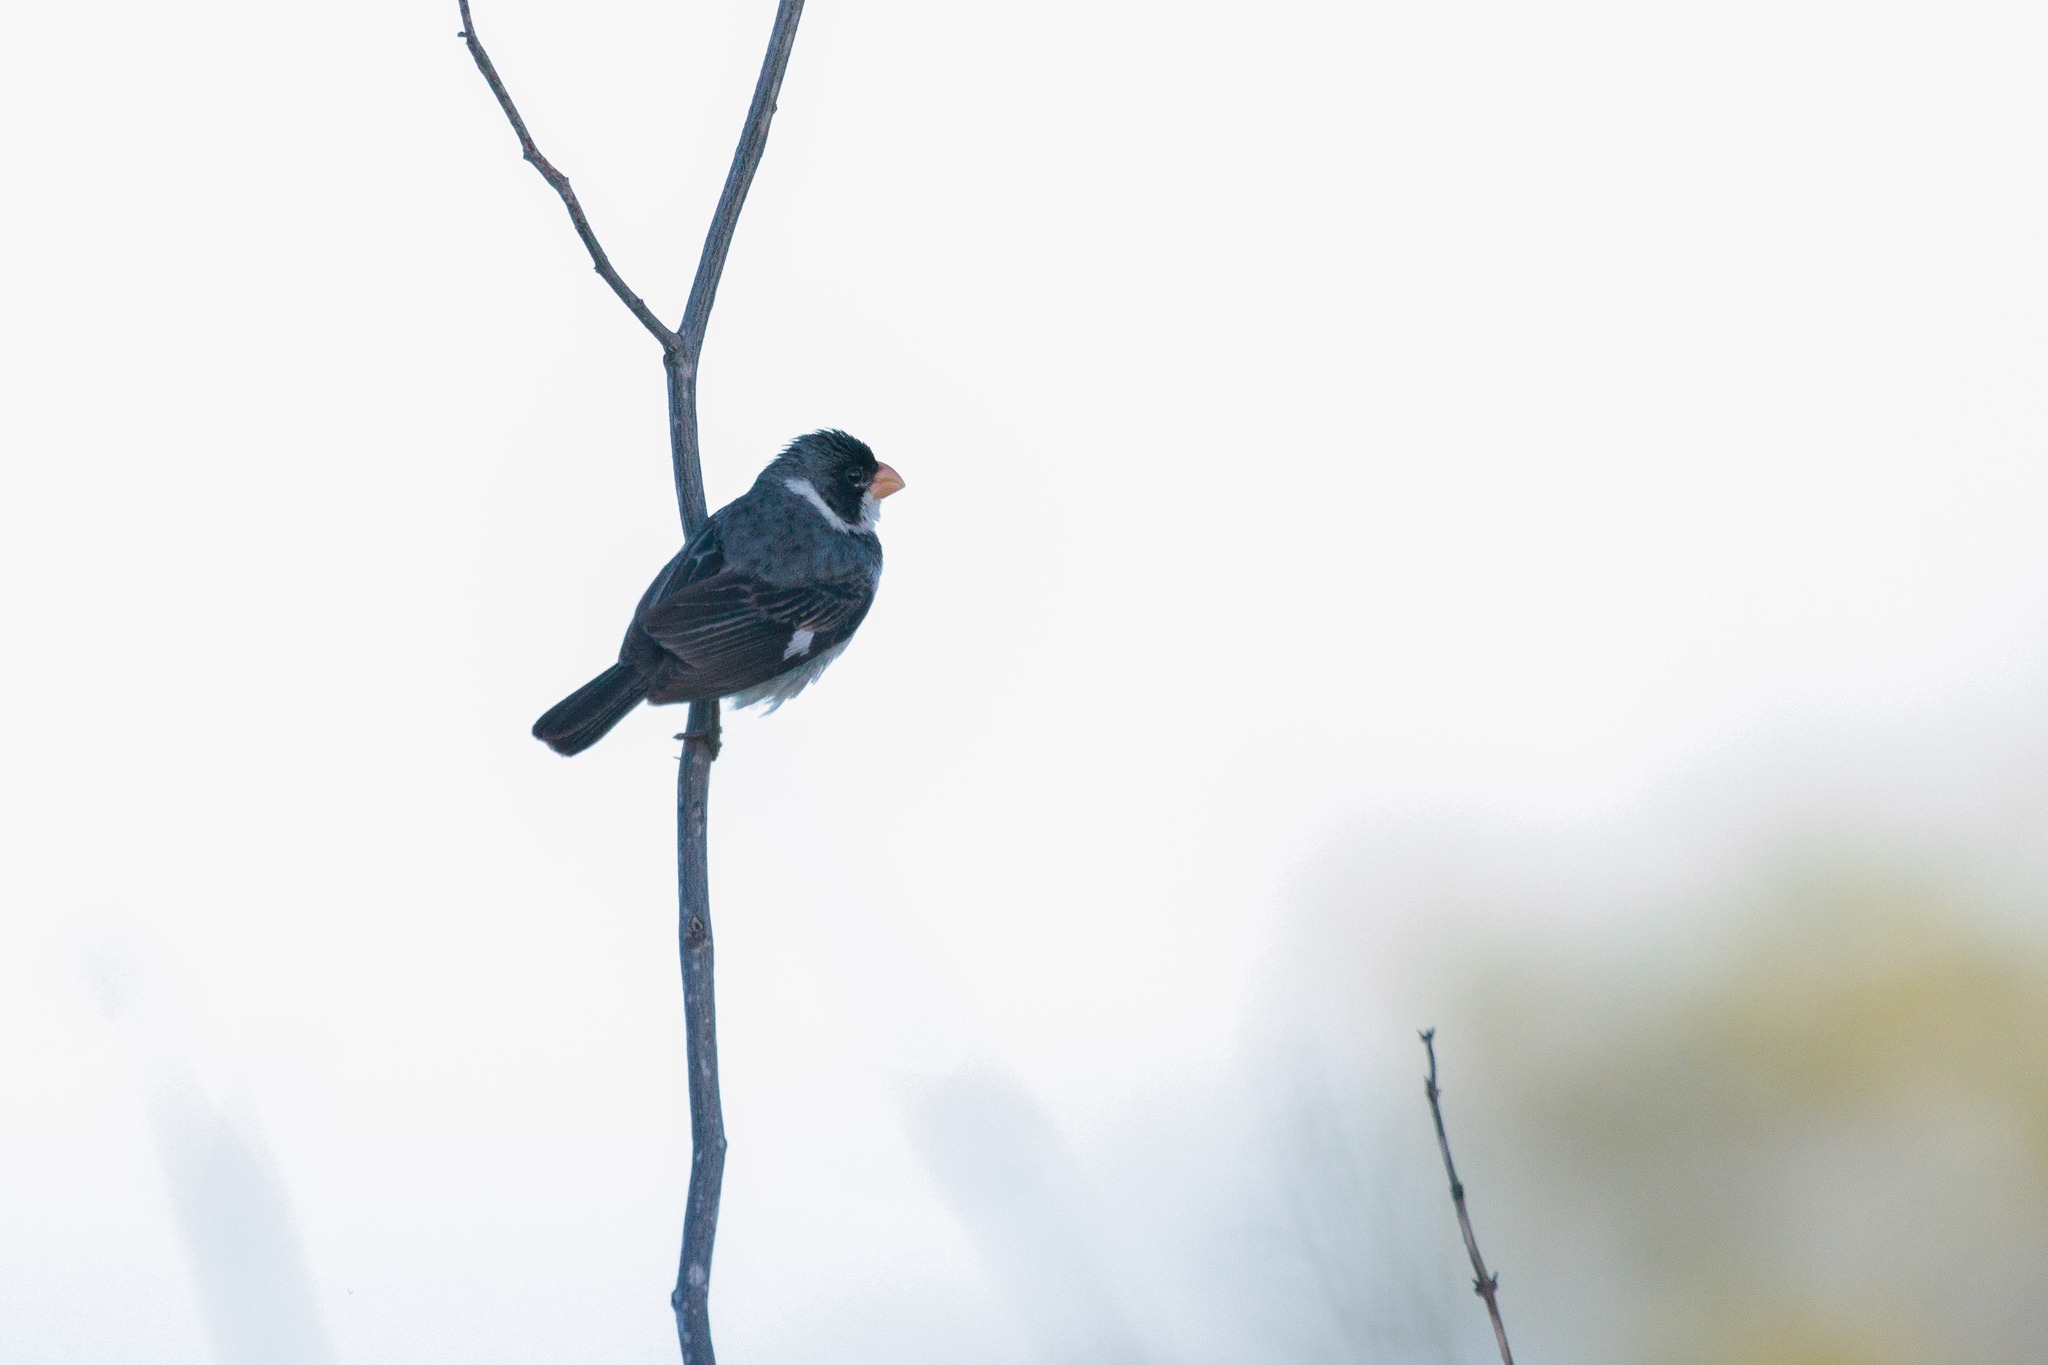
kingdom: Animalia
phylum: Chordata
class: Aves
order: Passeriformes
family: Thraupidae
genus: Sporophila
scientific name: Sporophila albogularis
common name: White-throated seedeater
